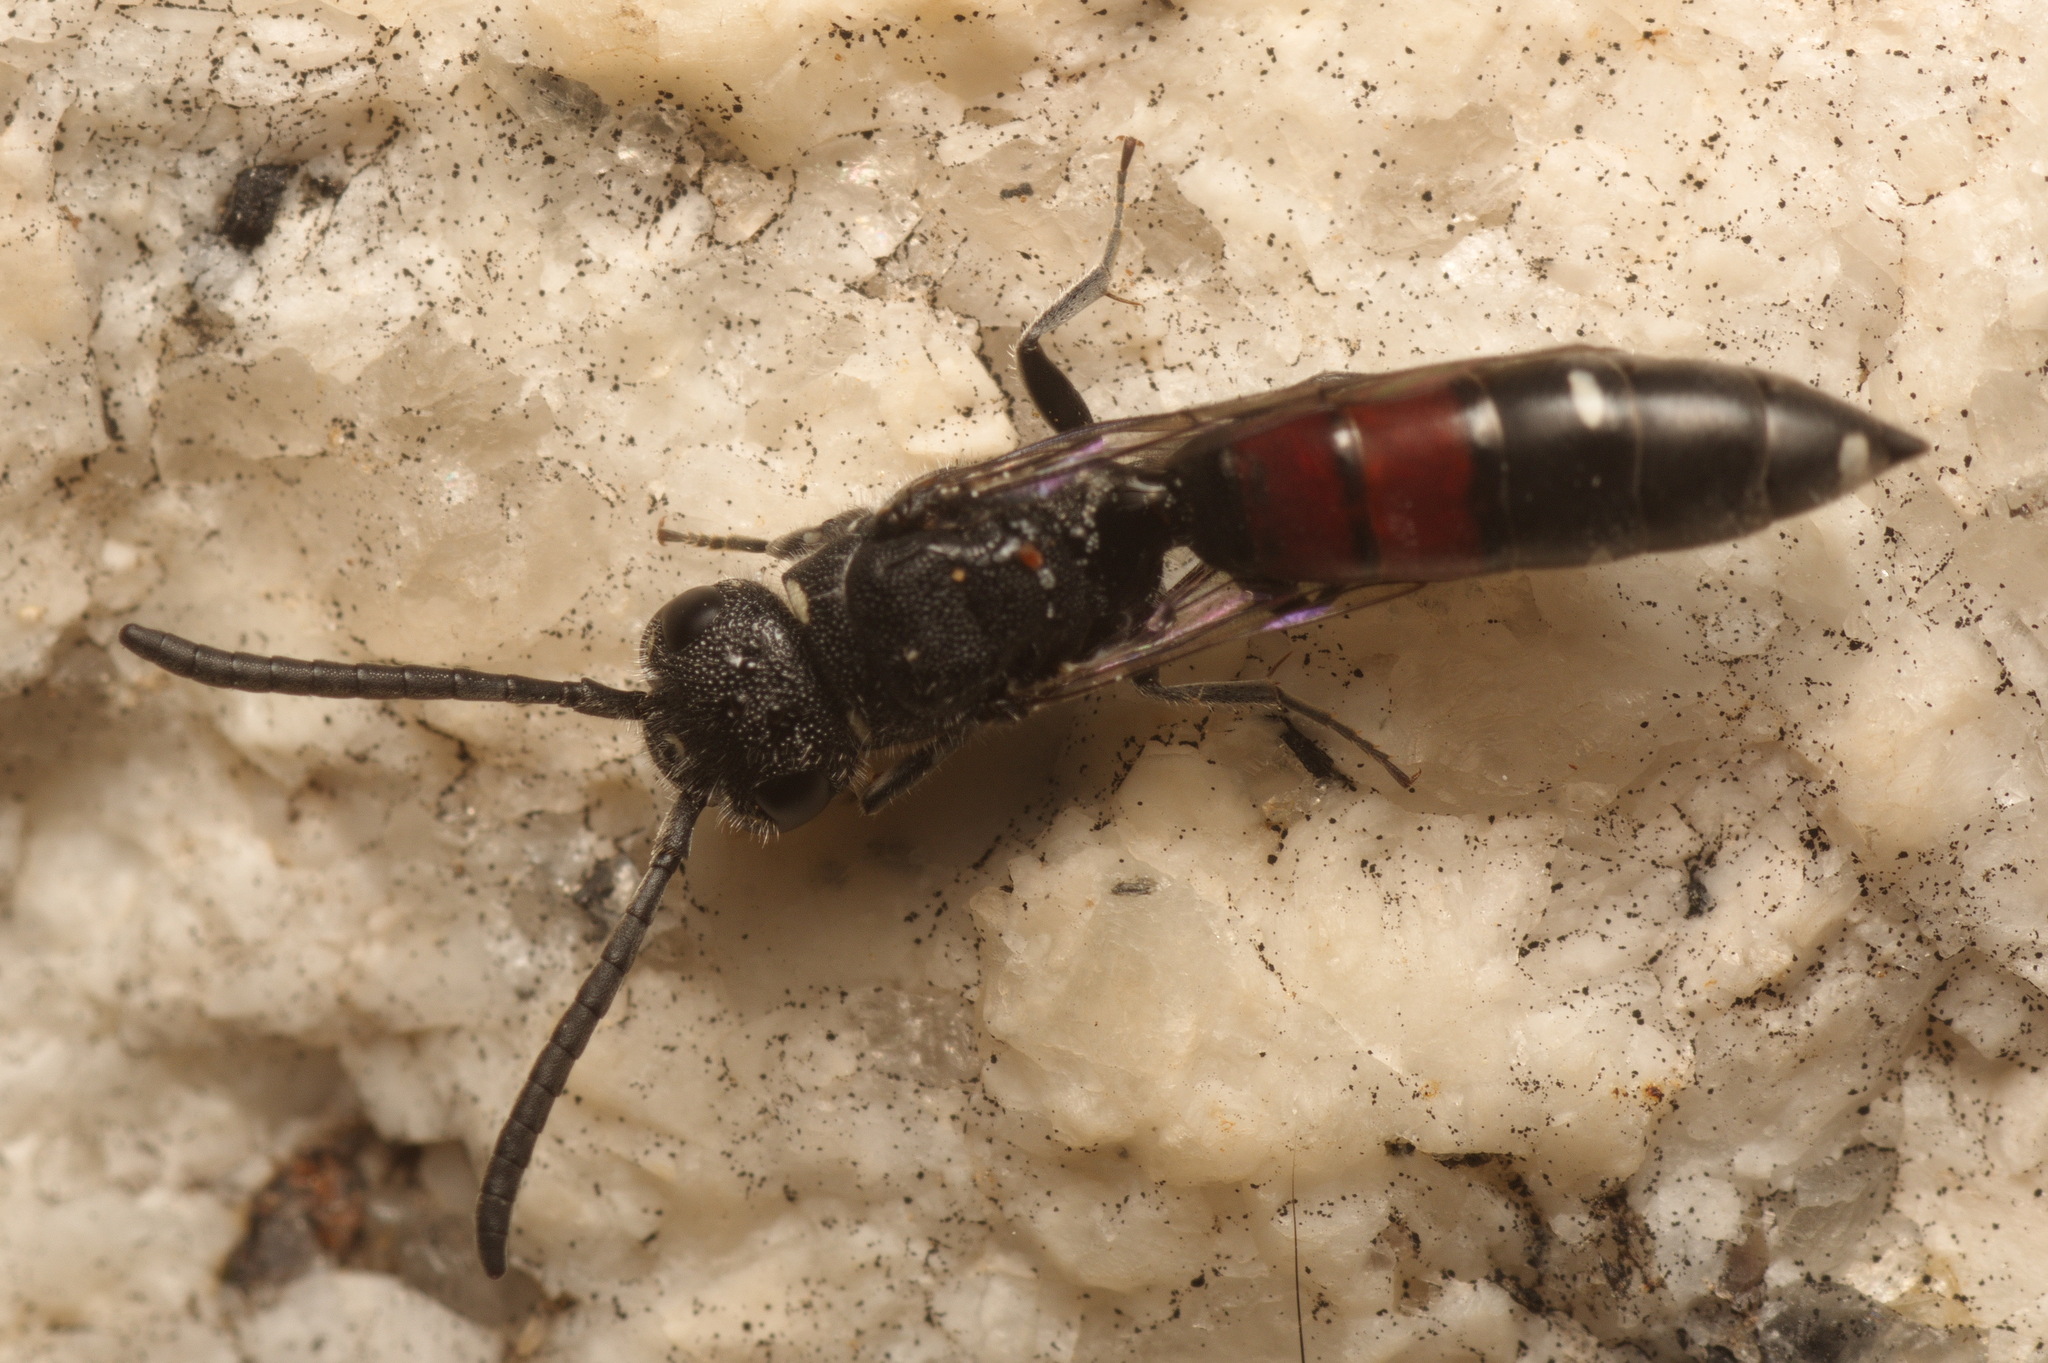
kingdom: Animalia
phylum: Arthropoda
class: Insecta
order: Hymenoptera
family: Sapygidae
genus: Sapyga
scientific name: Sapyga quinquepunctata
